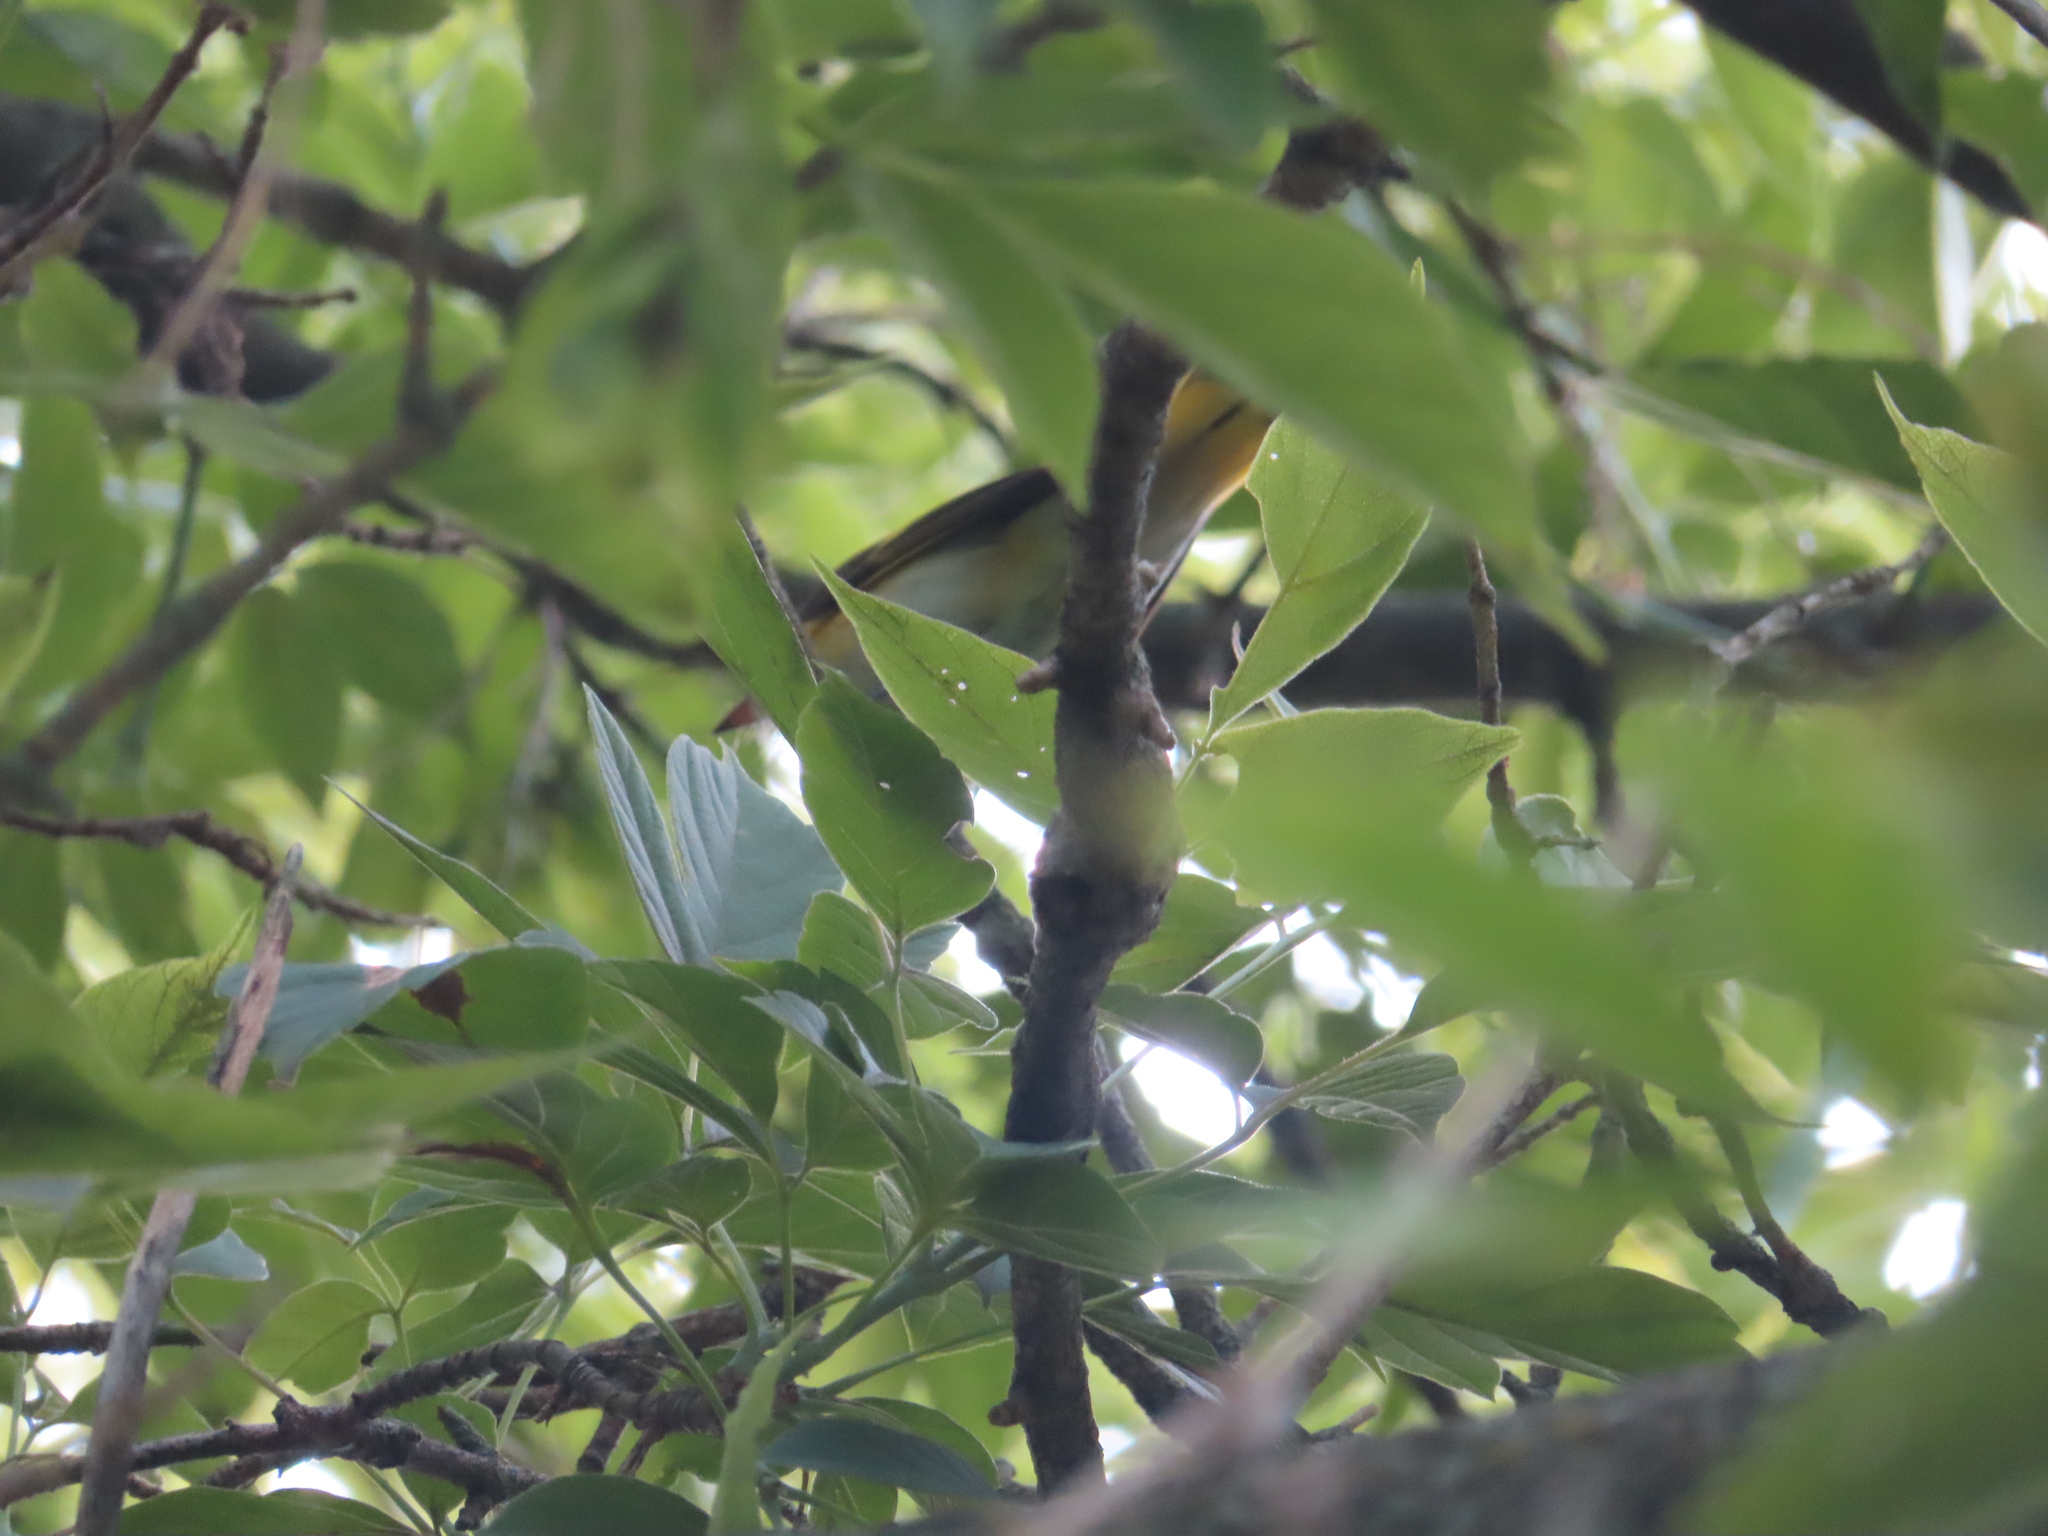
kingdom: Animalia
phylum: Chordata
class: Aves
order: Passeriformes
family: Parulidae
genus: Setophaga
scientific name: Setophaga ruticilla
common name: American redstart
